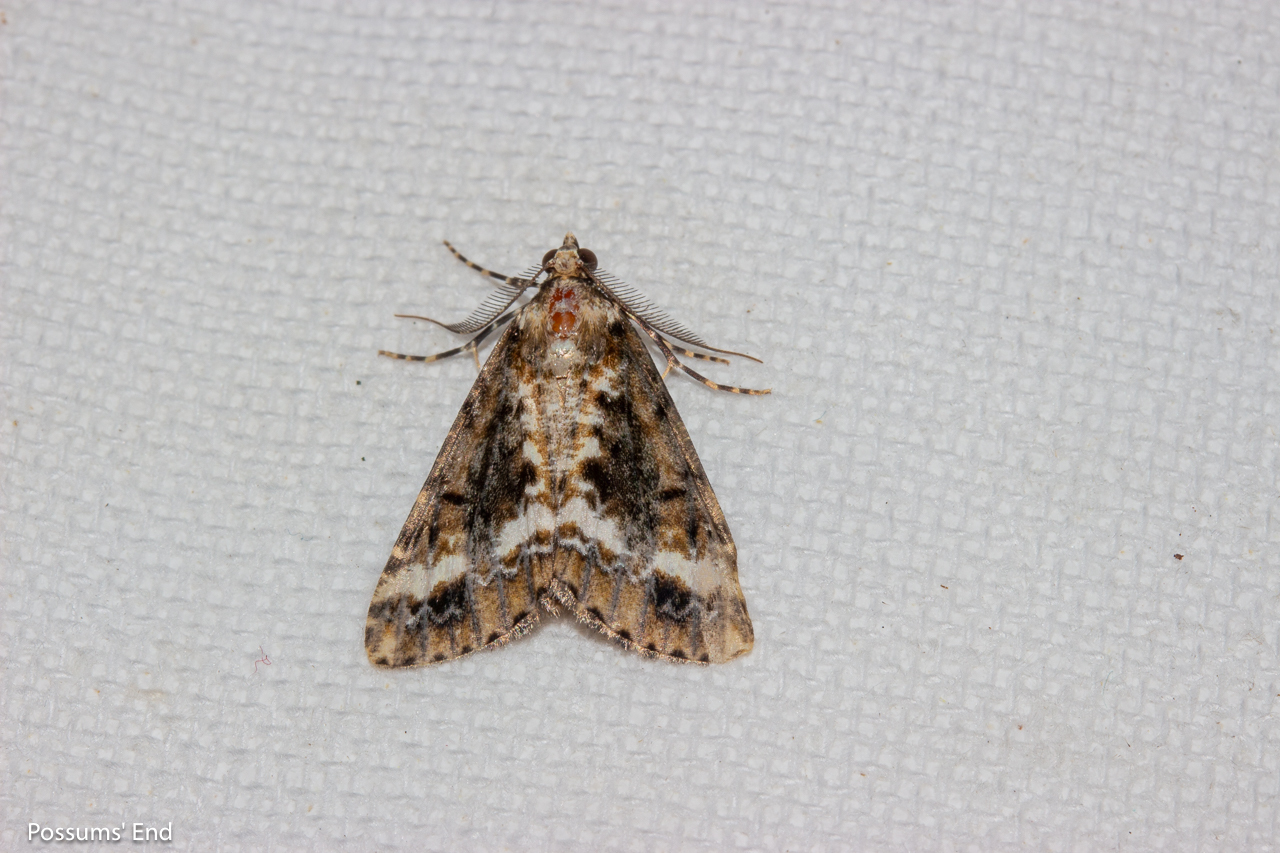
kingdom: Animalia
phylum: Arthropoda
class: Insecta
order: Lepidoptera
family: Geometridae
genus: Pseudocoremia
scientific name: Pseudocoremia leucelaea
